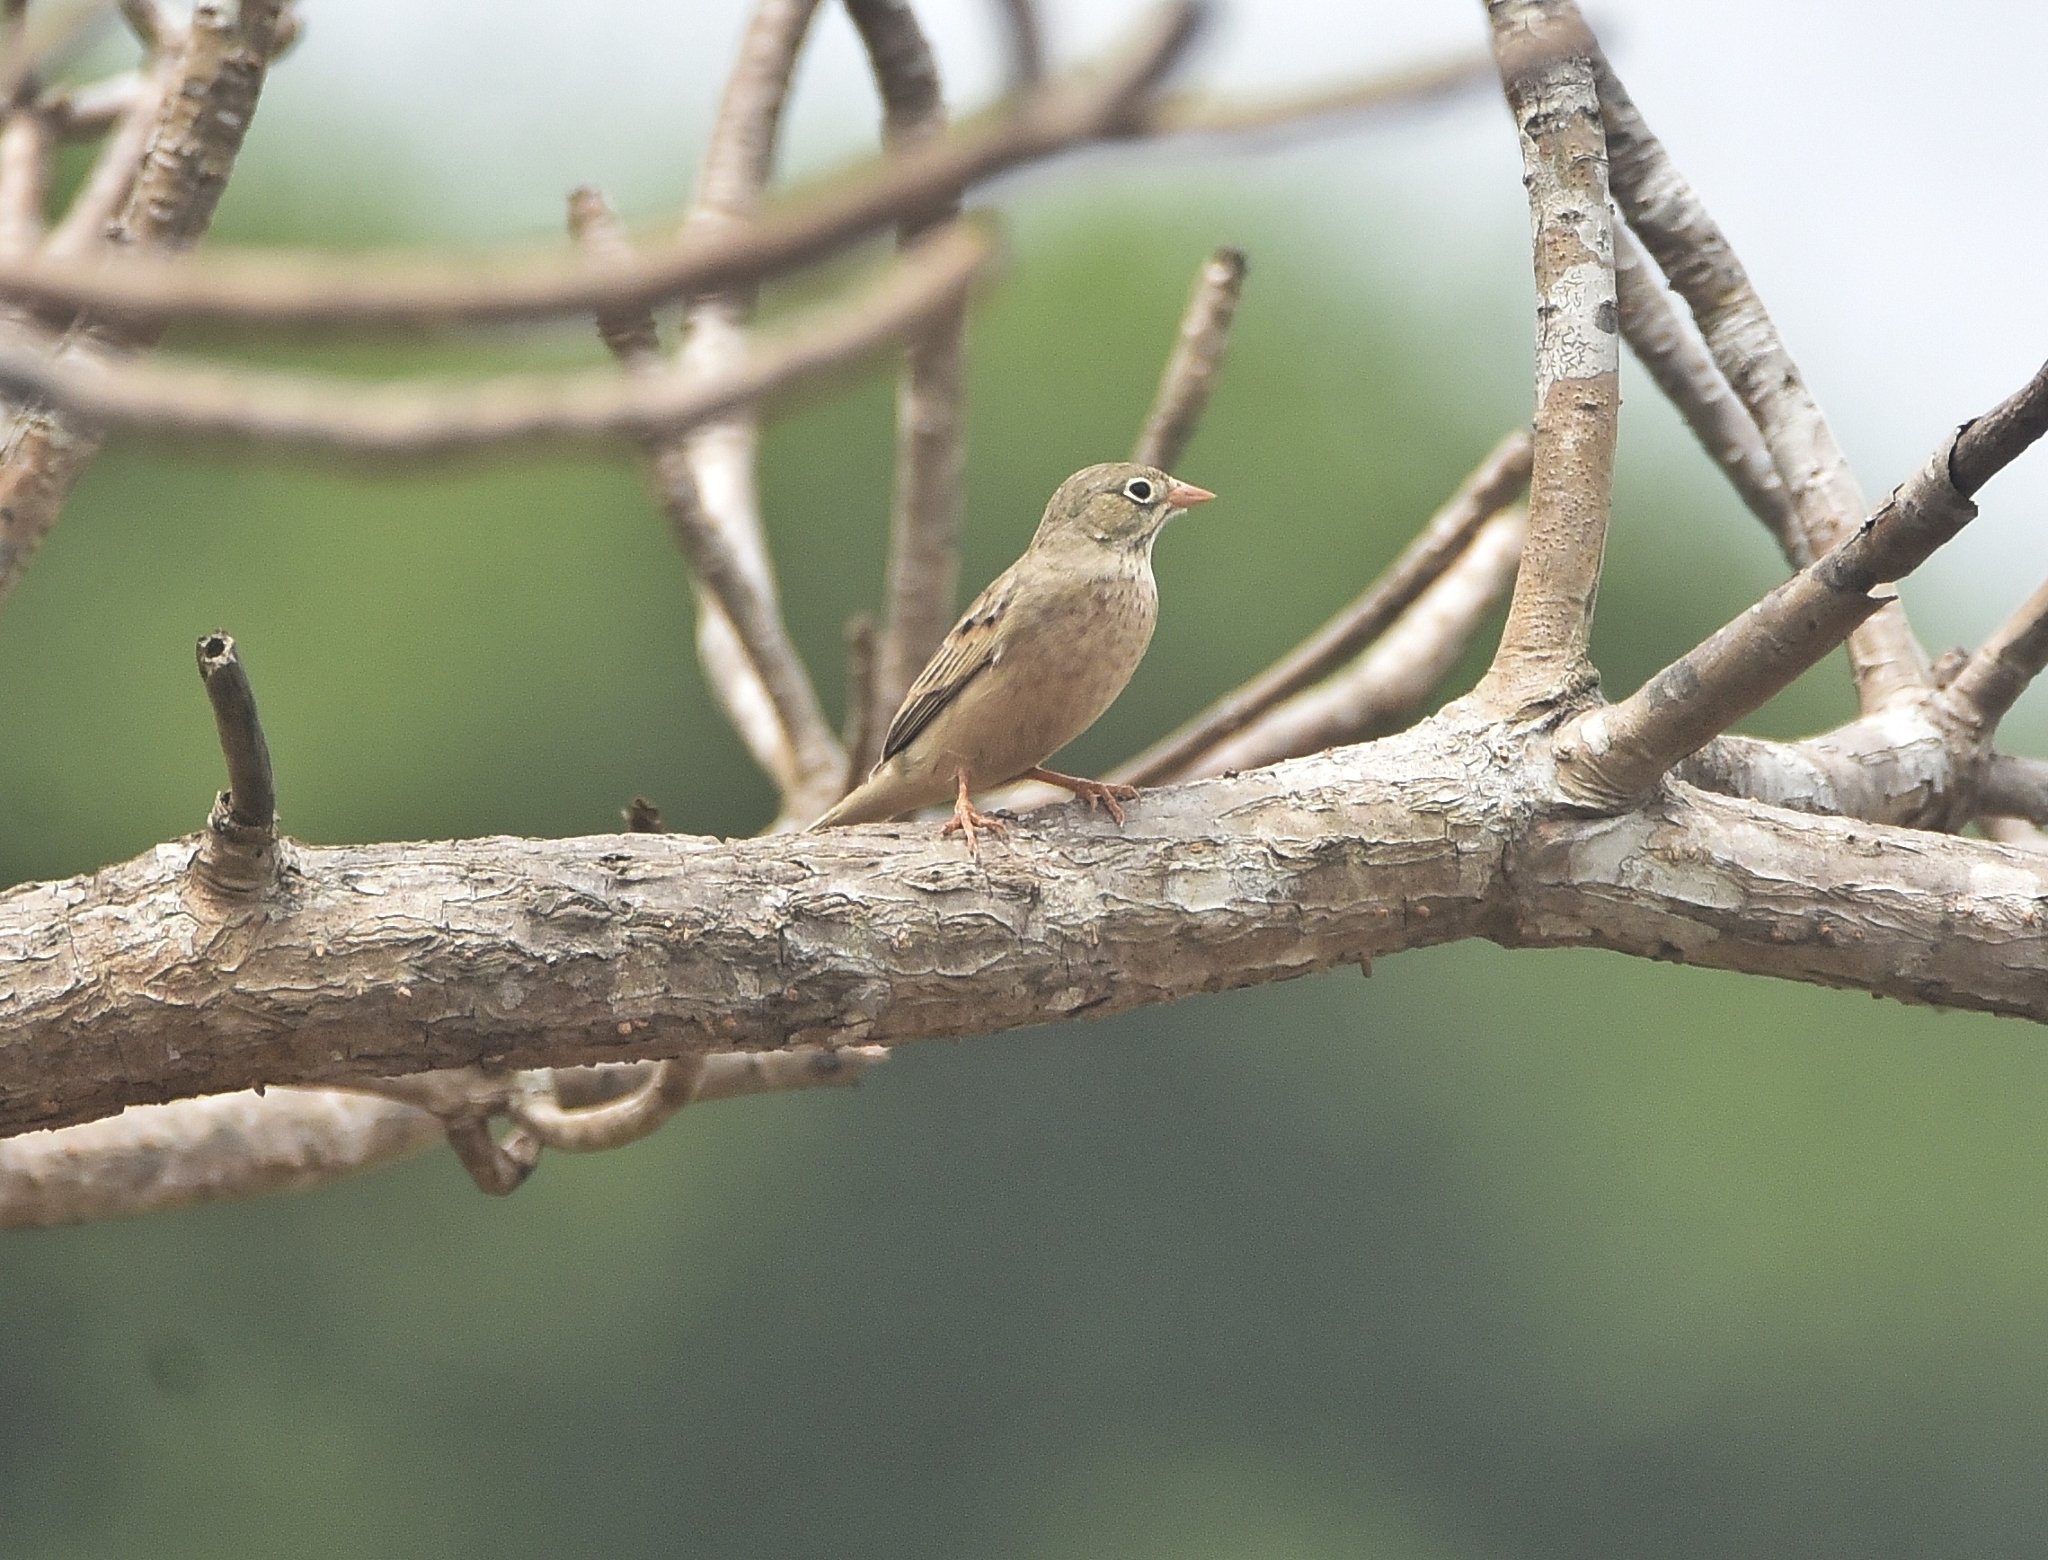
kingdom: Animalia
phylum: Chordata
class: Aves
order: Passeriformes
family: Emberizidae
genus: Emberiza
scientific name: Emberiza buchanani
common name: Grey-necked bunting
